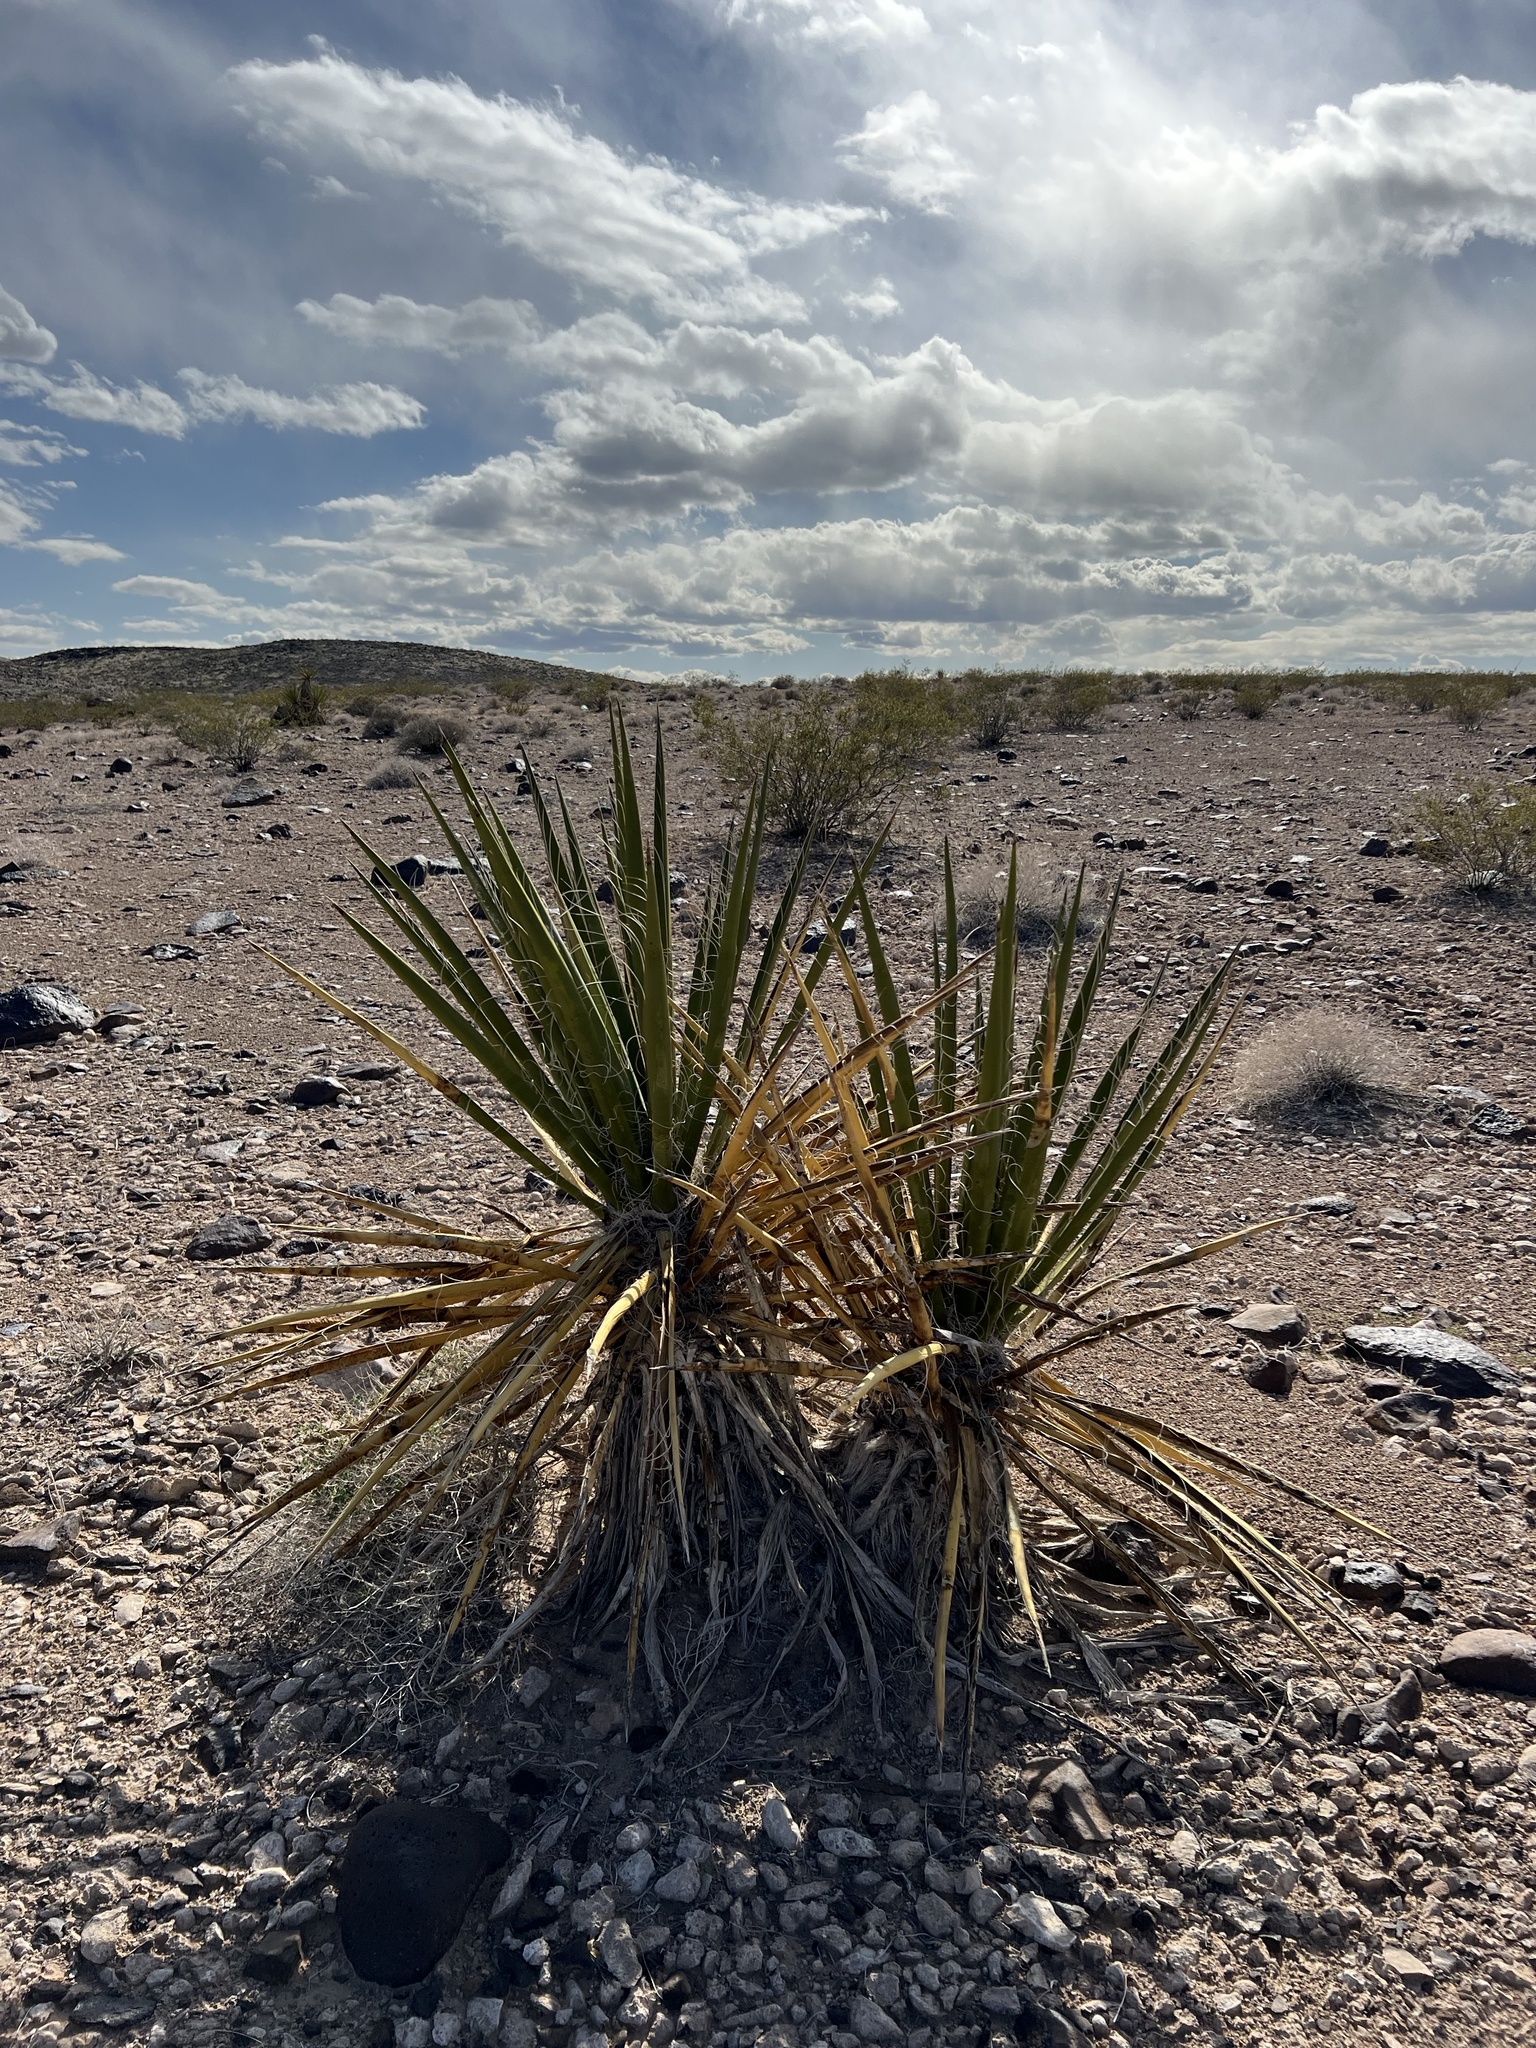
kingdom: Plantae
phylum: Tracheophyta
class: Liliopsida
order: Asparagales
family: Asparagaceae
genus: Yucca
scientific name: Yucca schidigera
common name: Mojave yucca
